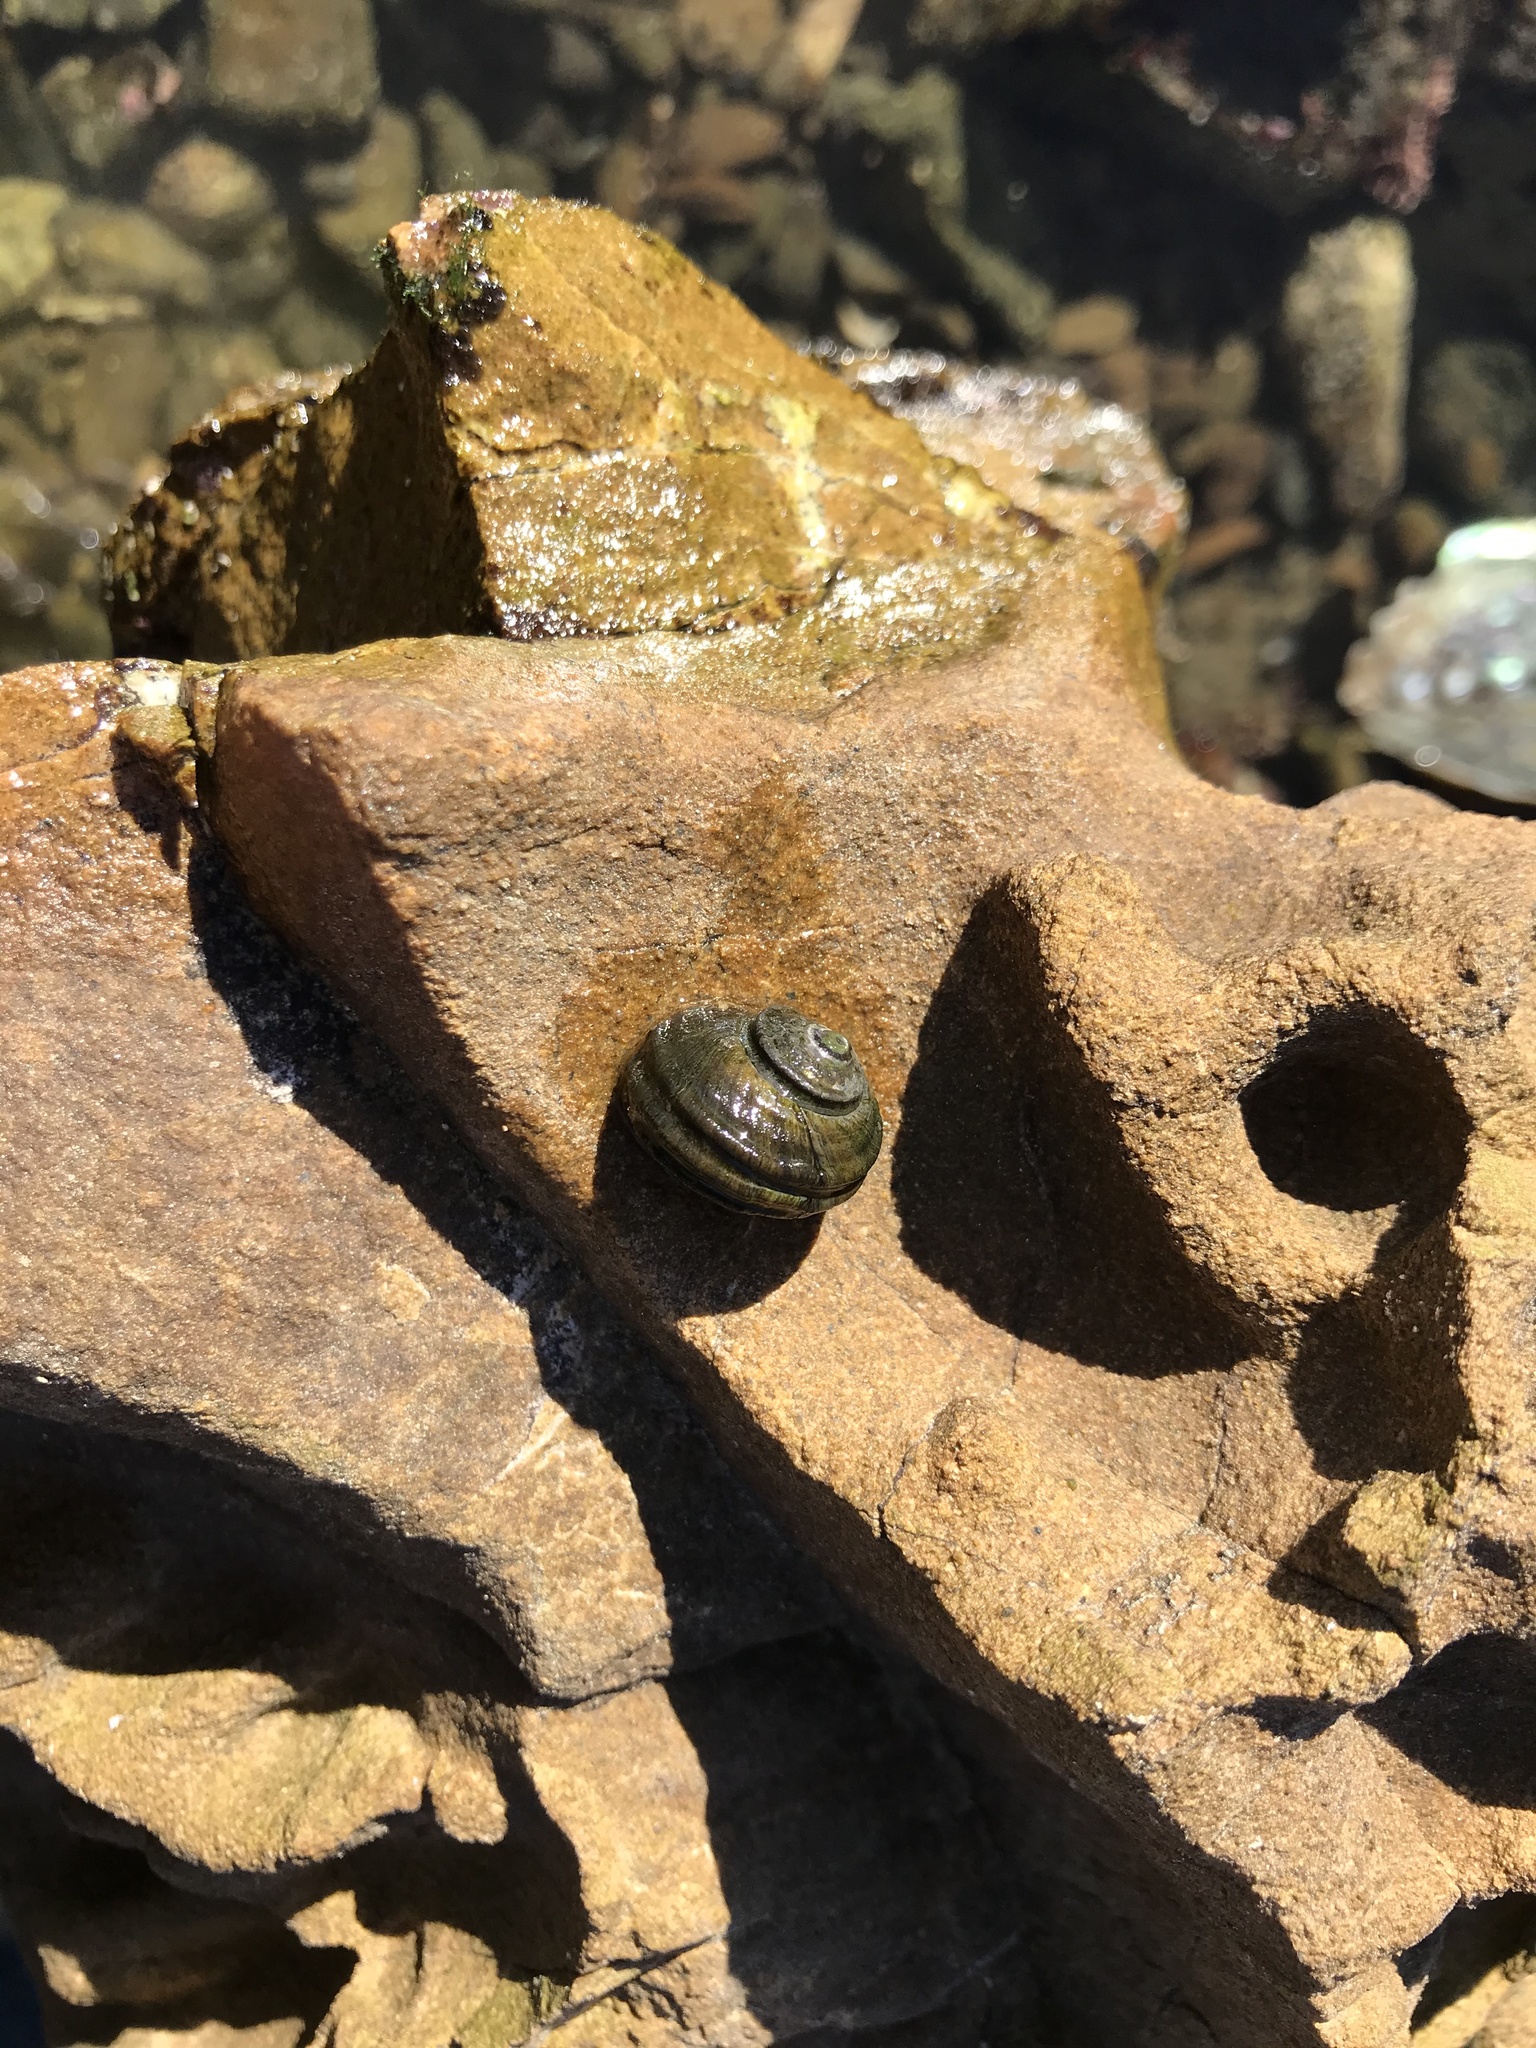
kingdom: Animalia
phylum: Mollusca
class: Gastropoda
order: Trochida
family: Turbinidae
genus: Lunella
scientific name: Lunella smaragda
